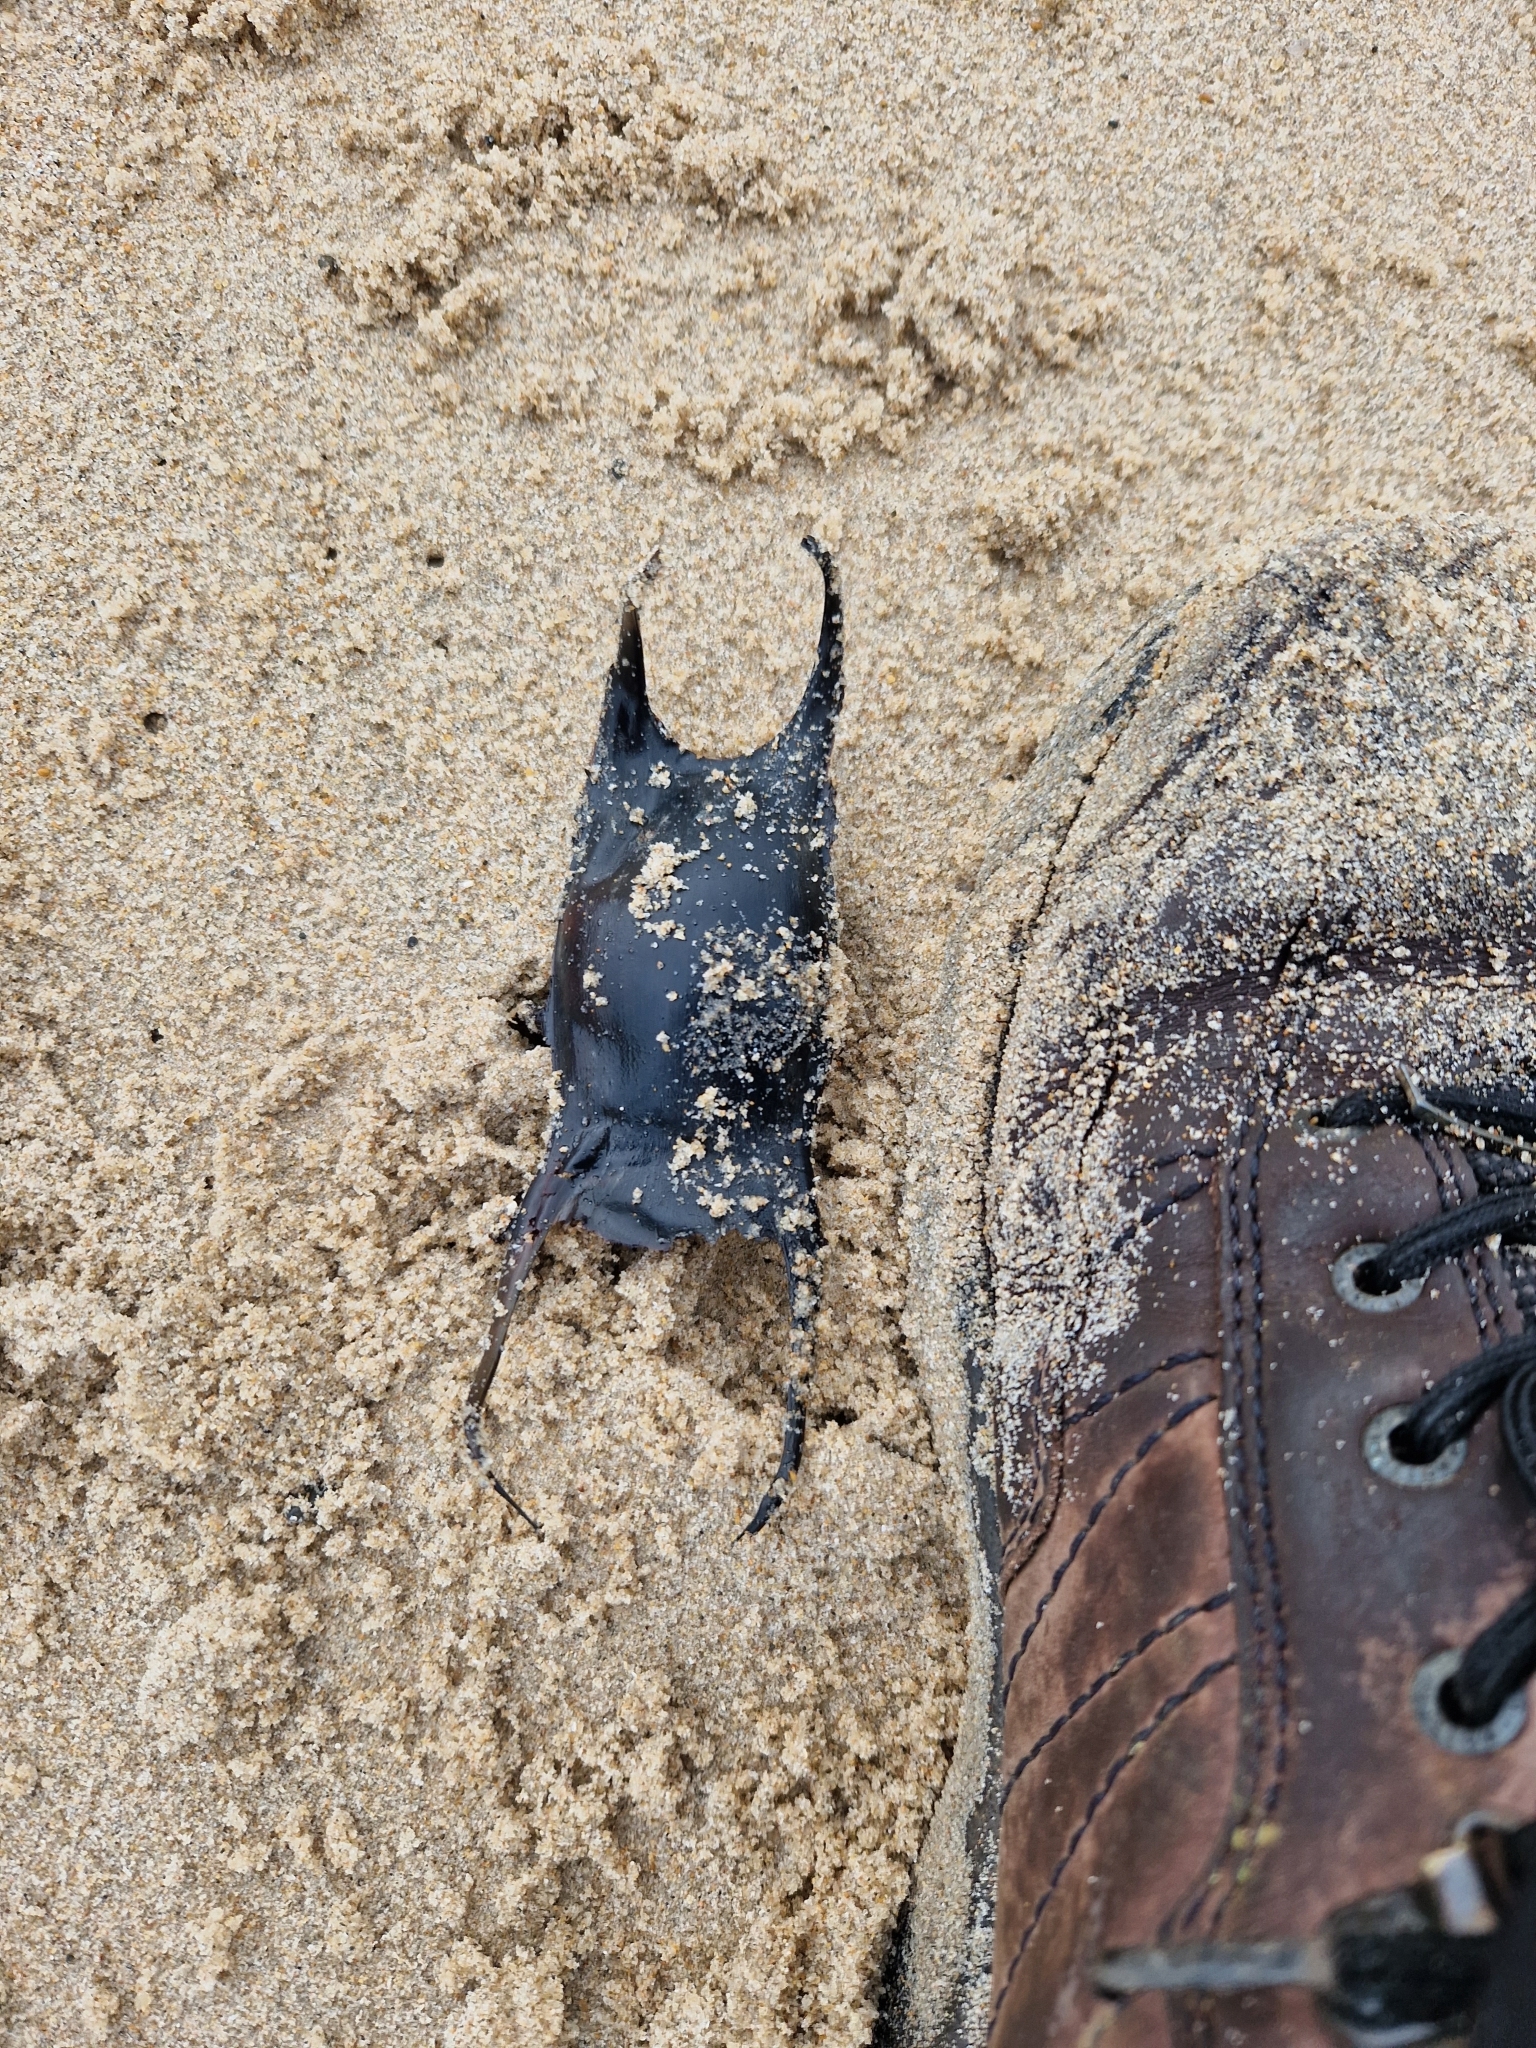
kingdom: Animalia
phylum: Chordata
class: Elasmobranchii
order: Rajiformes
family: Rajidae
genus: Raja
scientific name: Raja undulata
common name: Undulate ray
